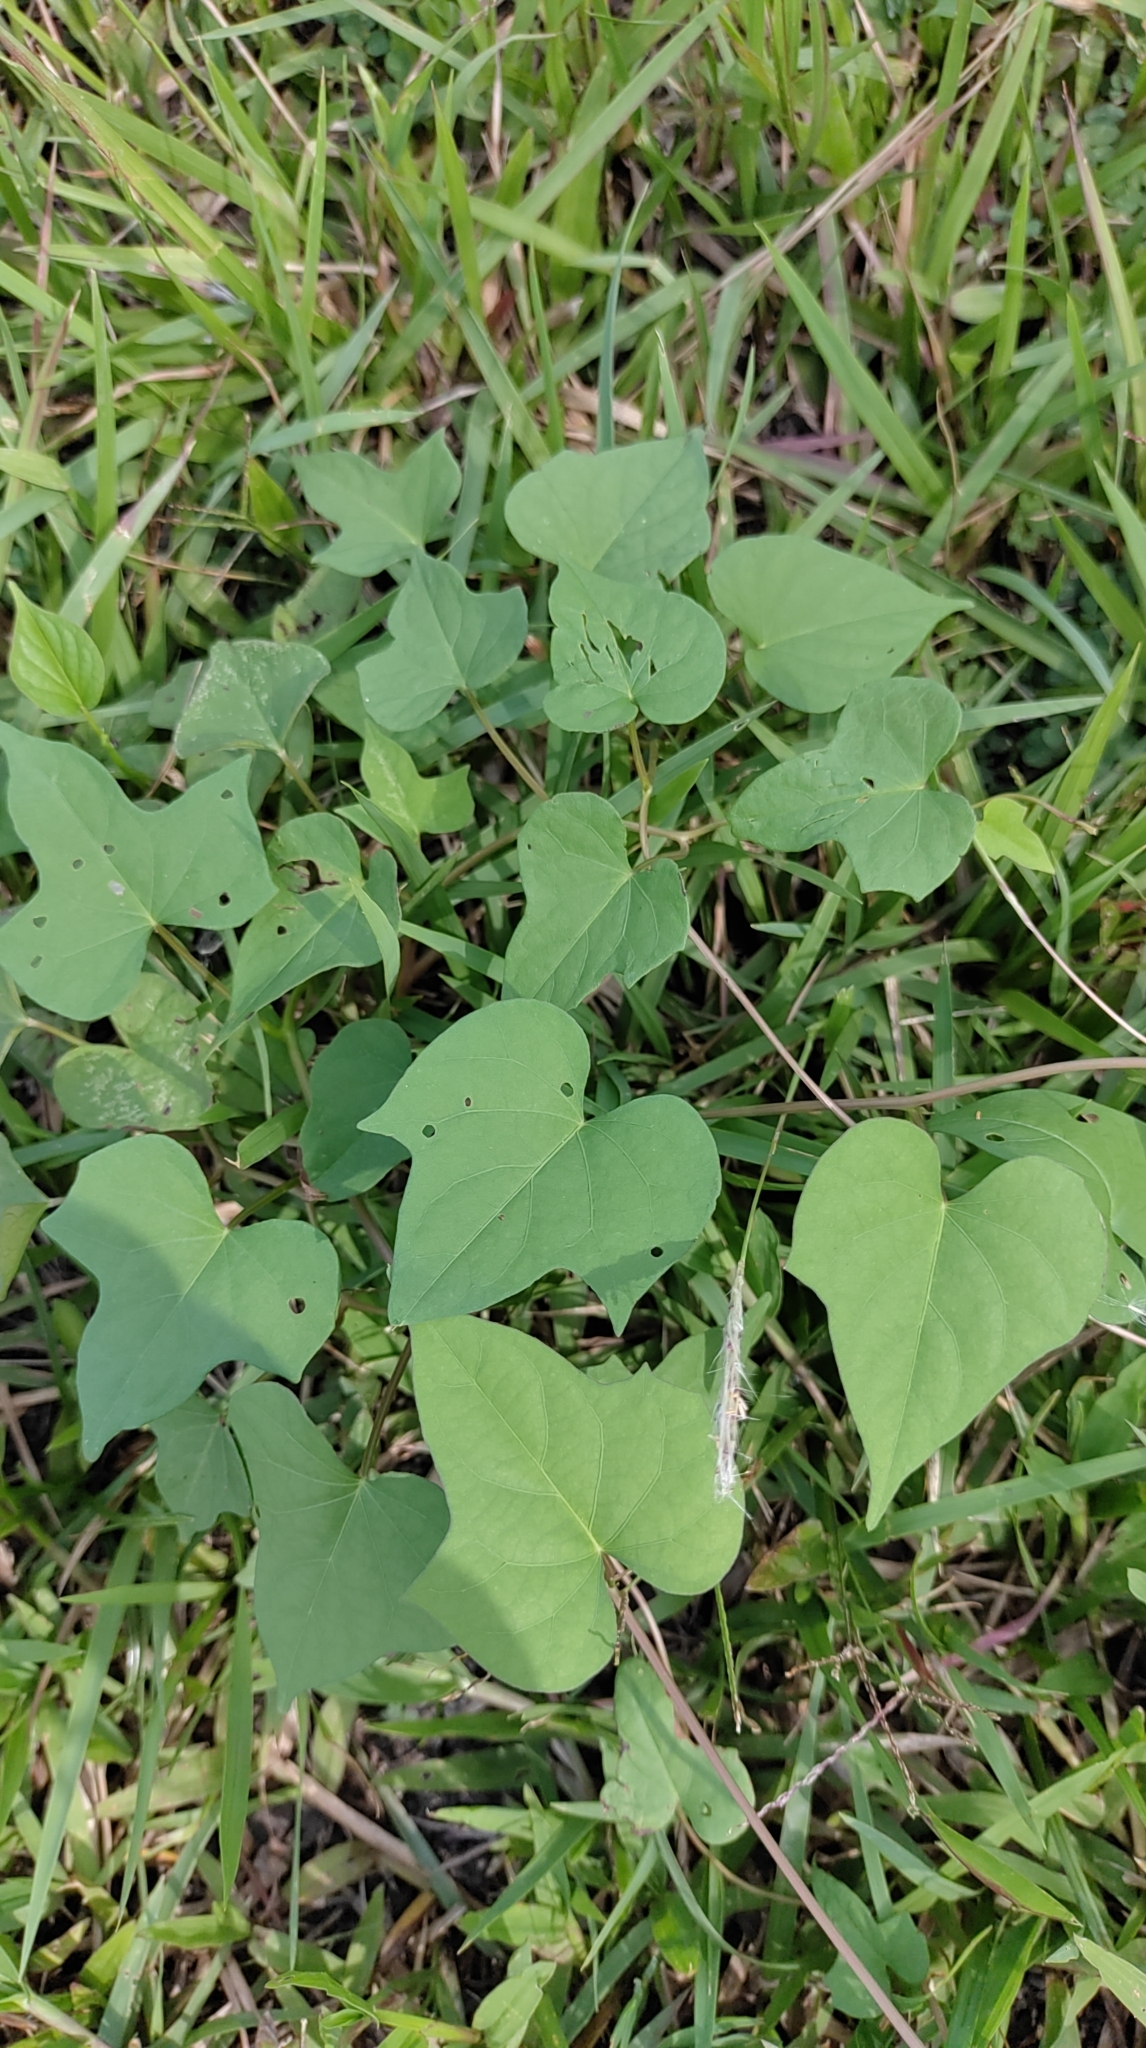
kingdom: Plantae
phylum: Tracheophyta
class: Magnoliopsida
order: Solanales
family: Convolvulaceae
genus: Ipomoea
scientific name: Ipomoea batatas
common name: Sweet-potato
